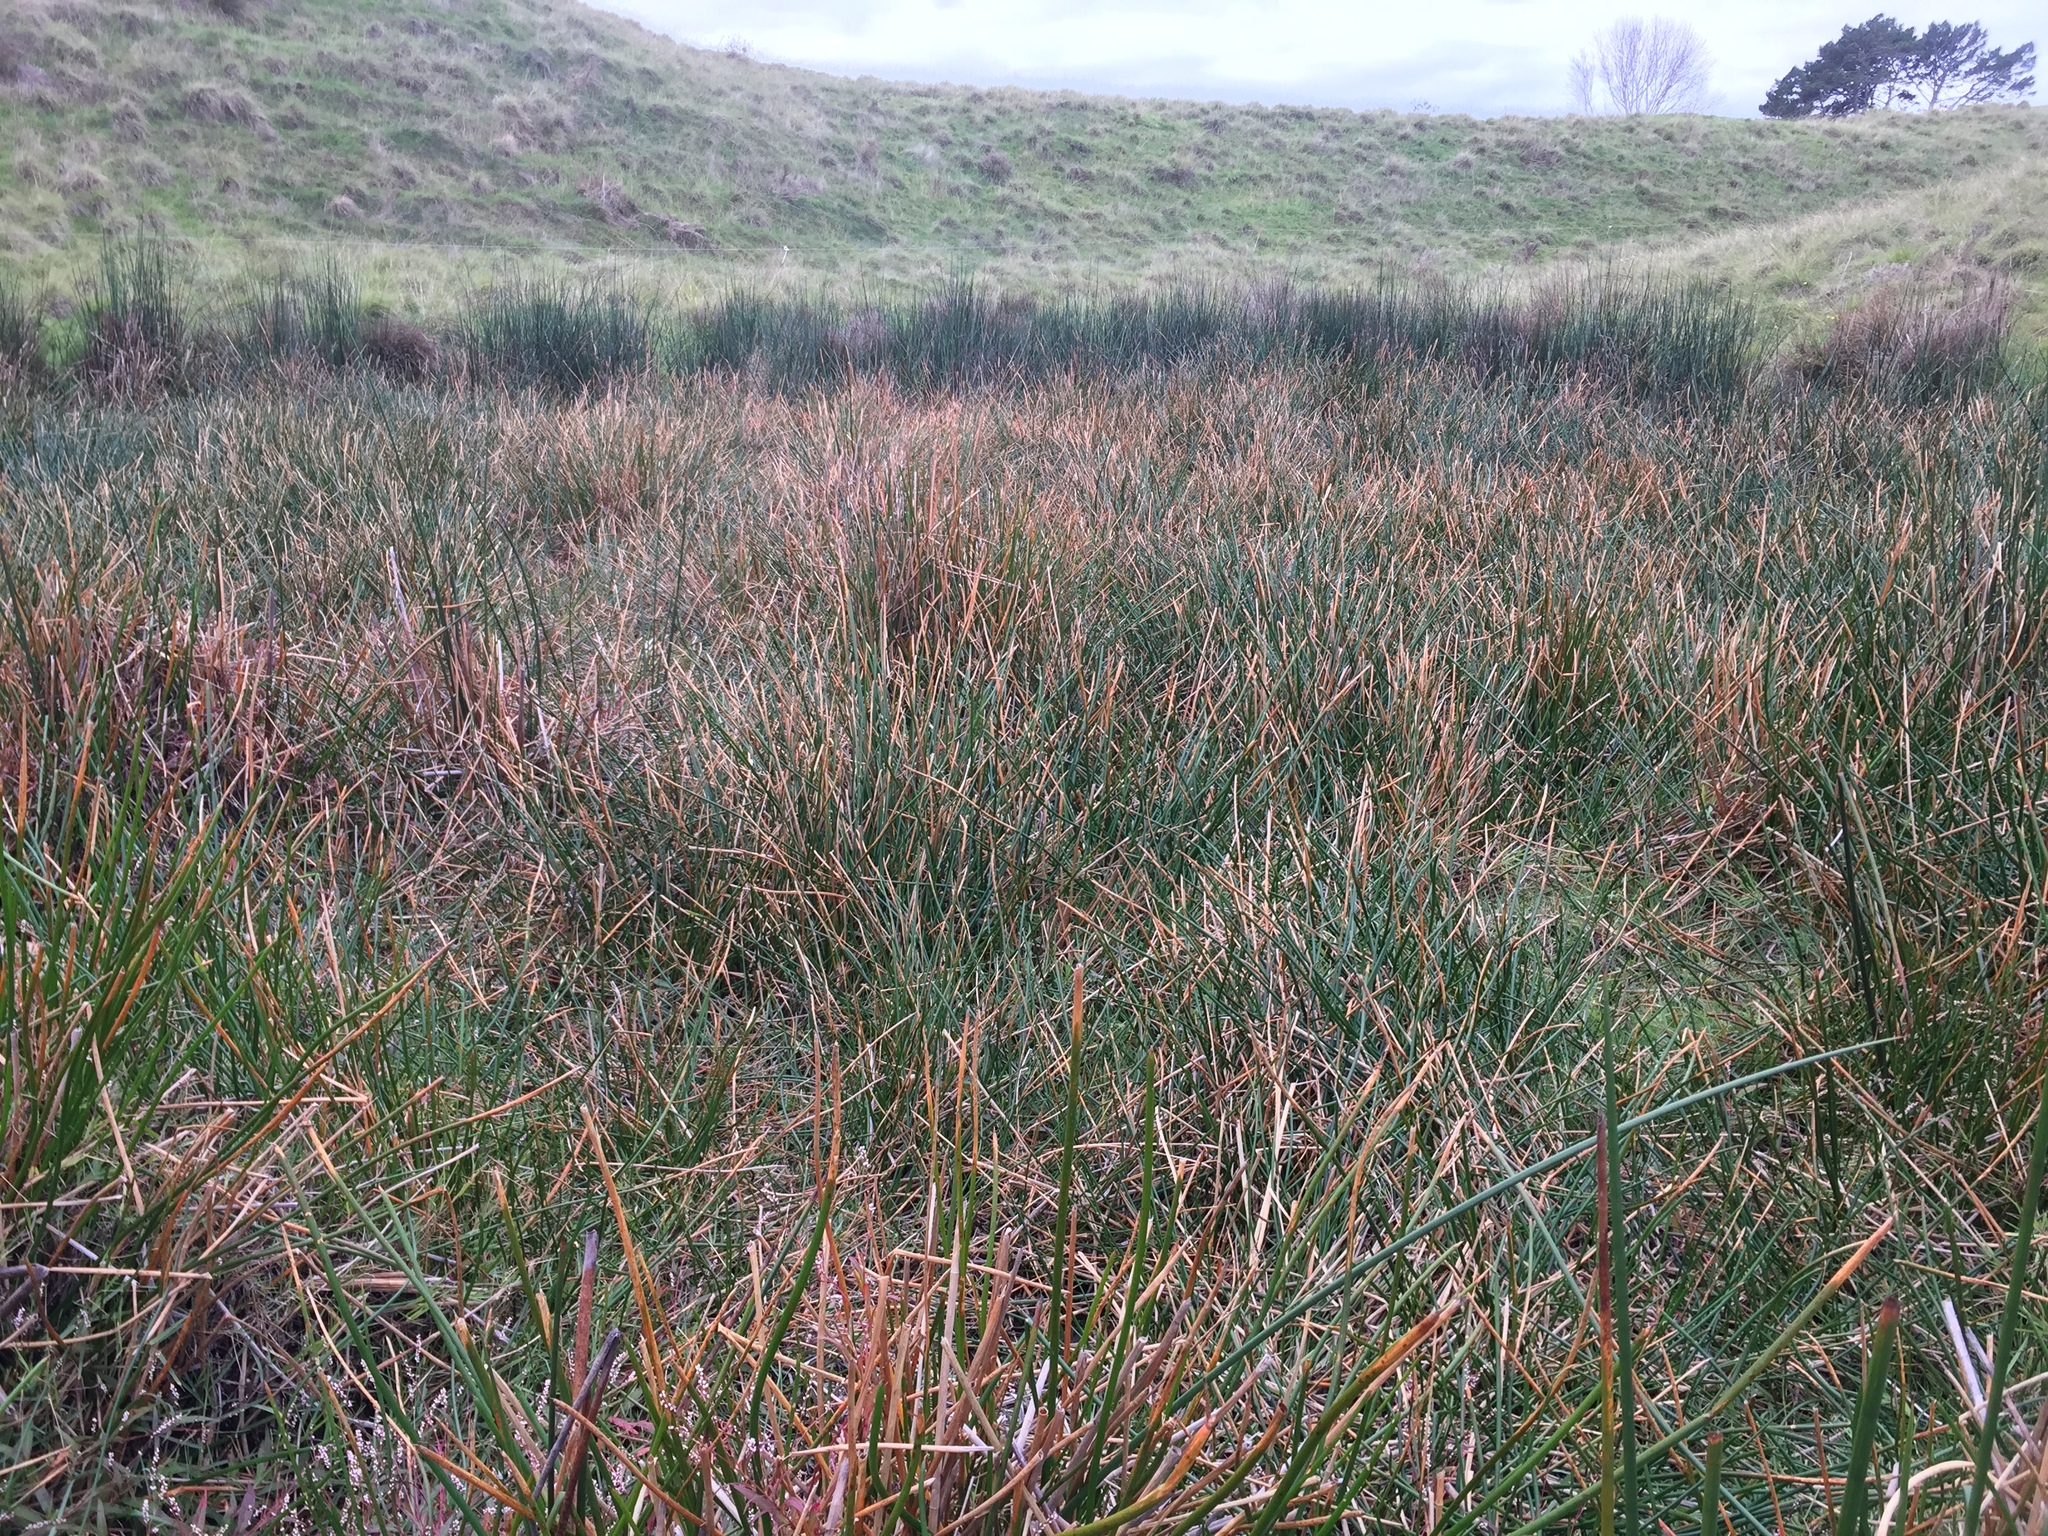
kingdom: Plantae
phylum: Tracheophyta
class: Liliopsida
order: Poales
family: Cyperaceae
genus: Eleocharis
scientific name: Eleocharis sphacelata
